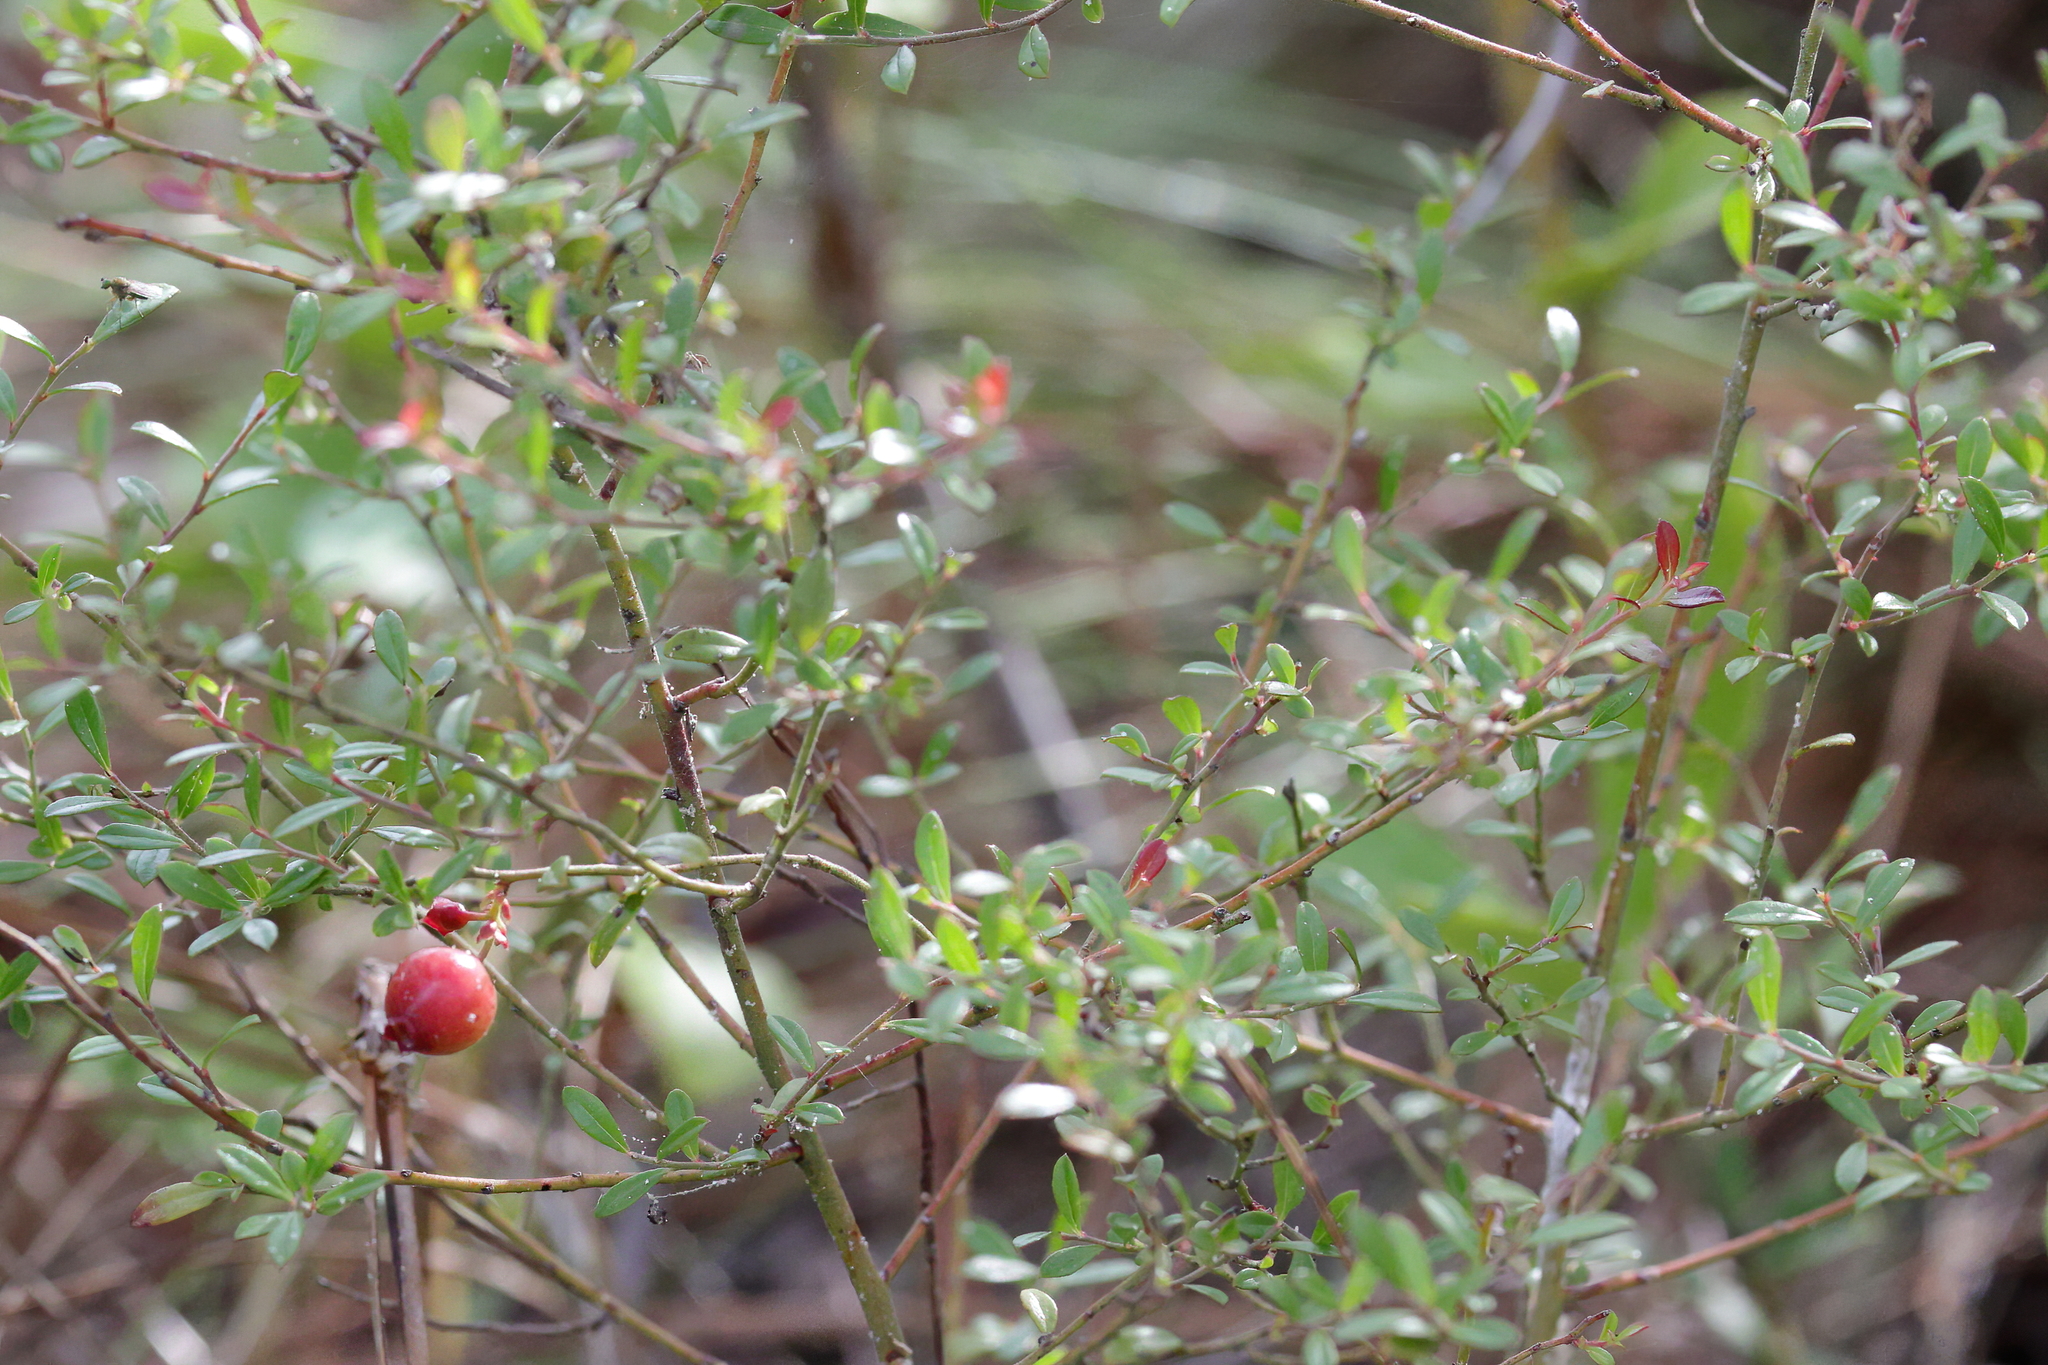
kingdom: Plantae
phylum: Tracheophyta
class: Magnoliopsida
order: Ericales
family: Ericaceae
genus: Vaccinium
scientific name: Vaccinium myrsinites
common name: Evergreen blueberry
